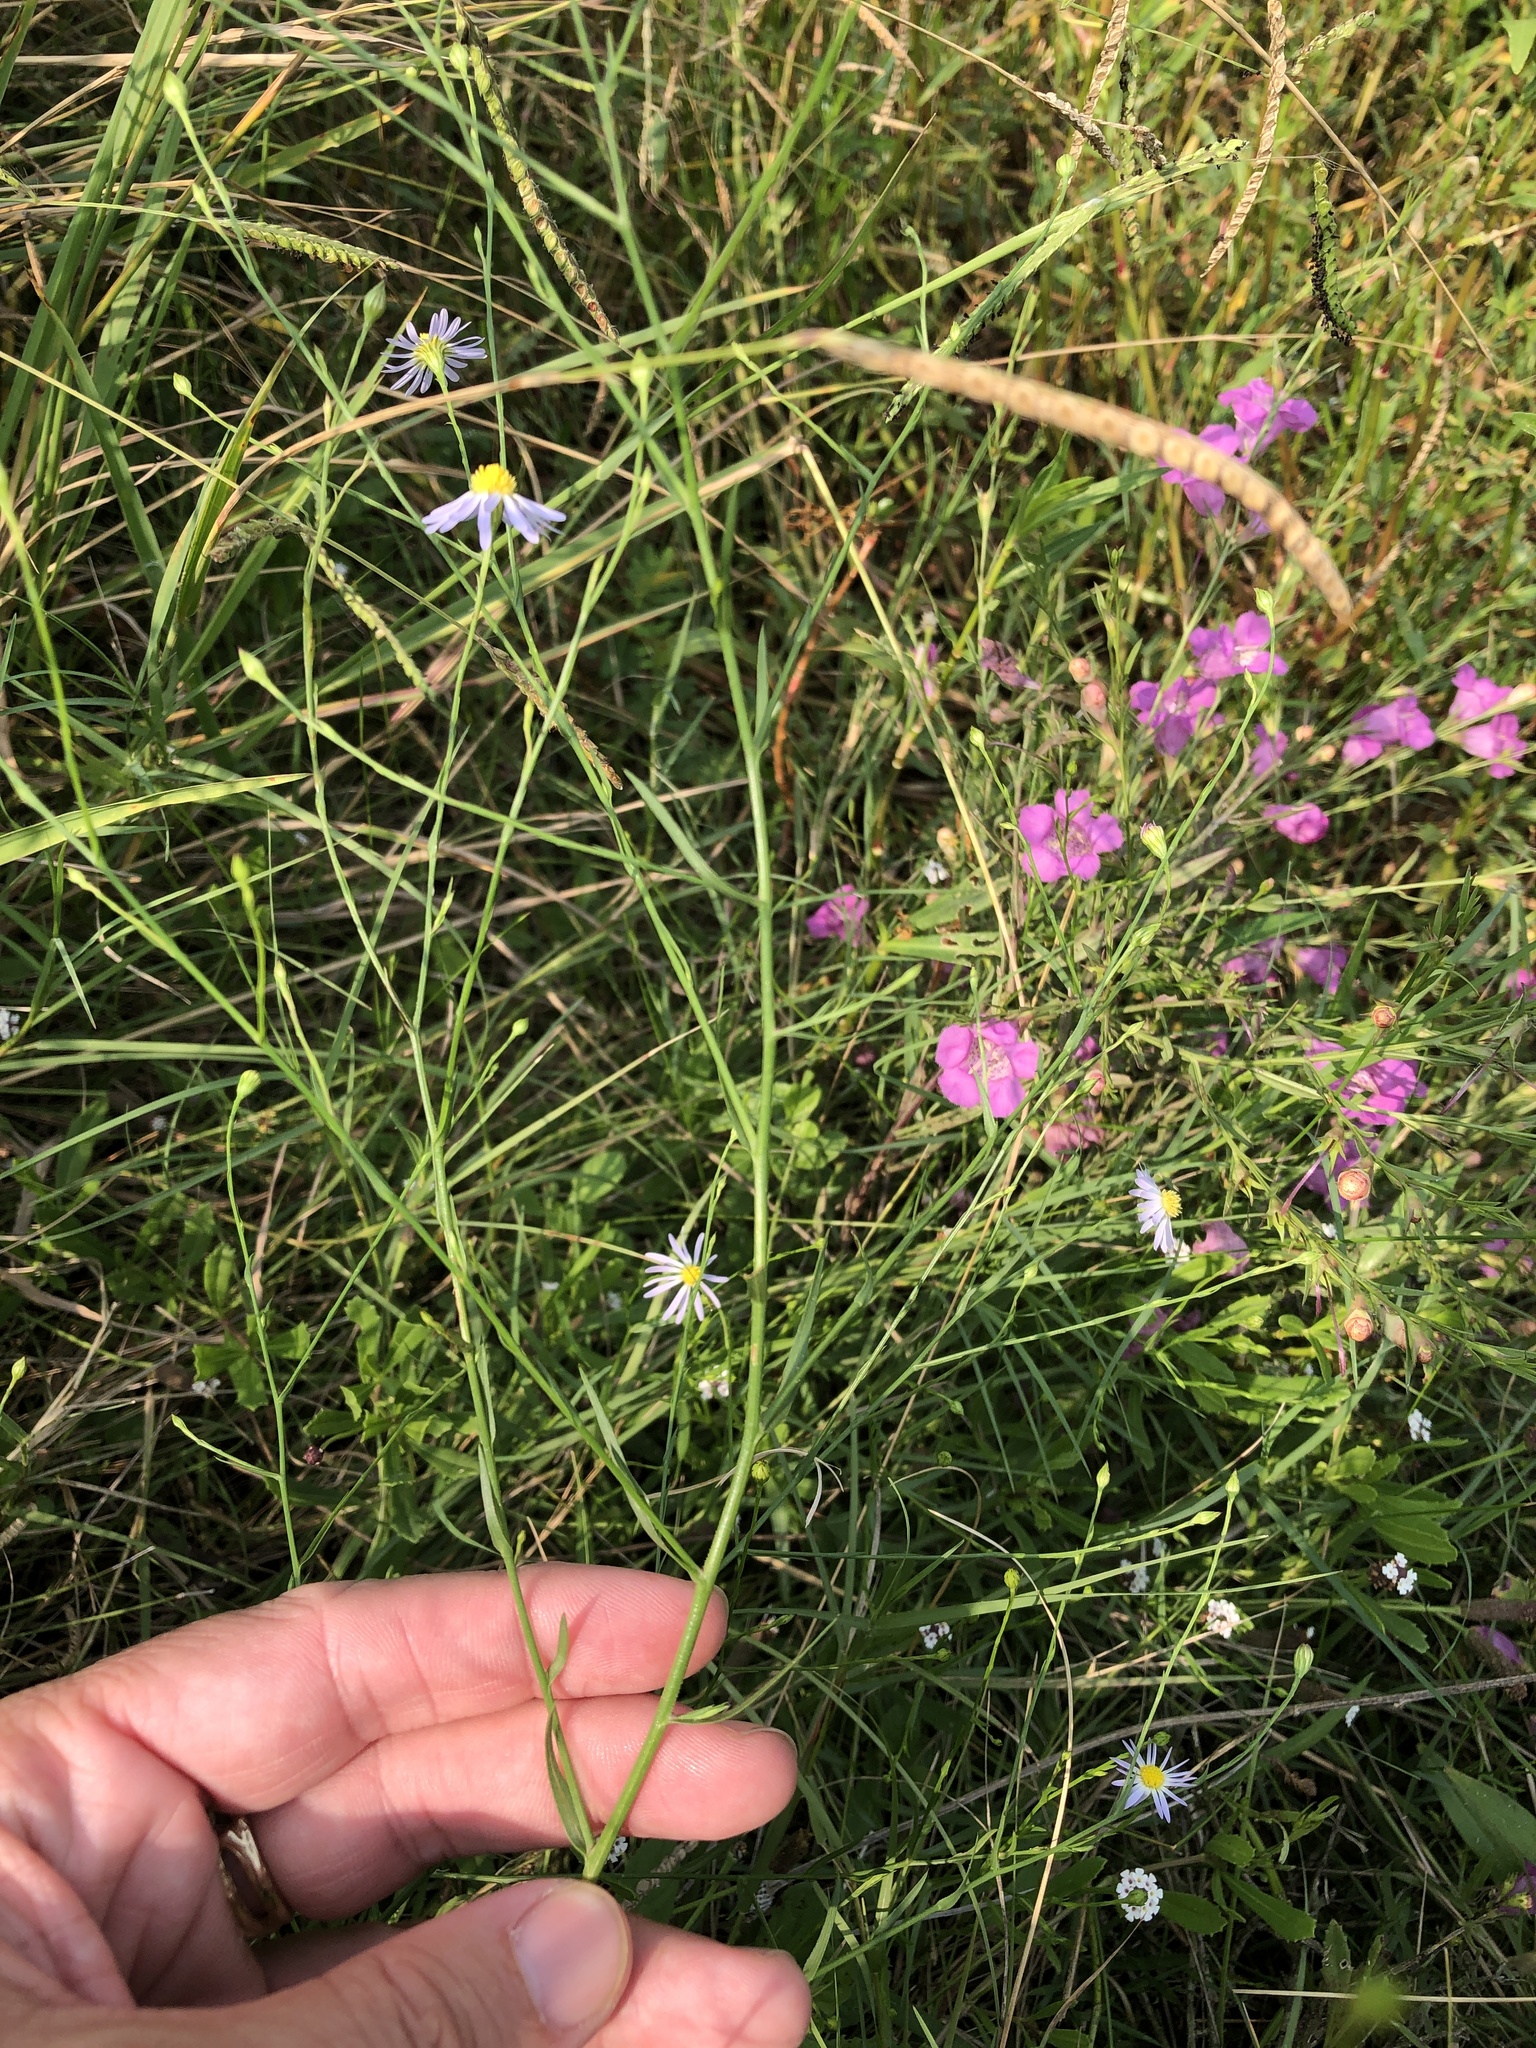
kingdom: Plantae
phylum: Tracheophyta
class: Magnoliopsida
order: Asterales
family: Asteraceae
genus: Symphyotrichum
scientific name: Symphyotrichum divaricatum
